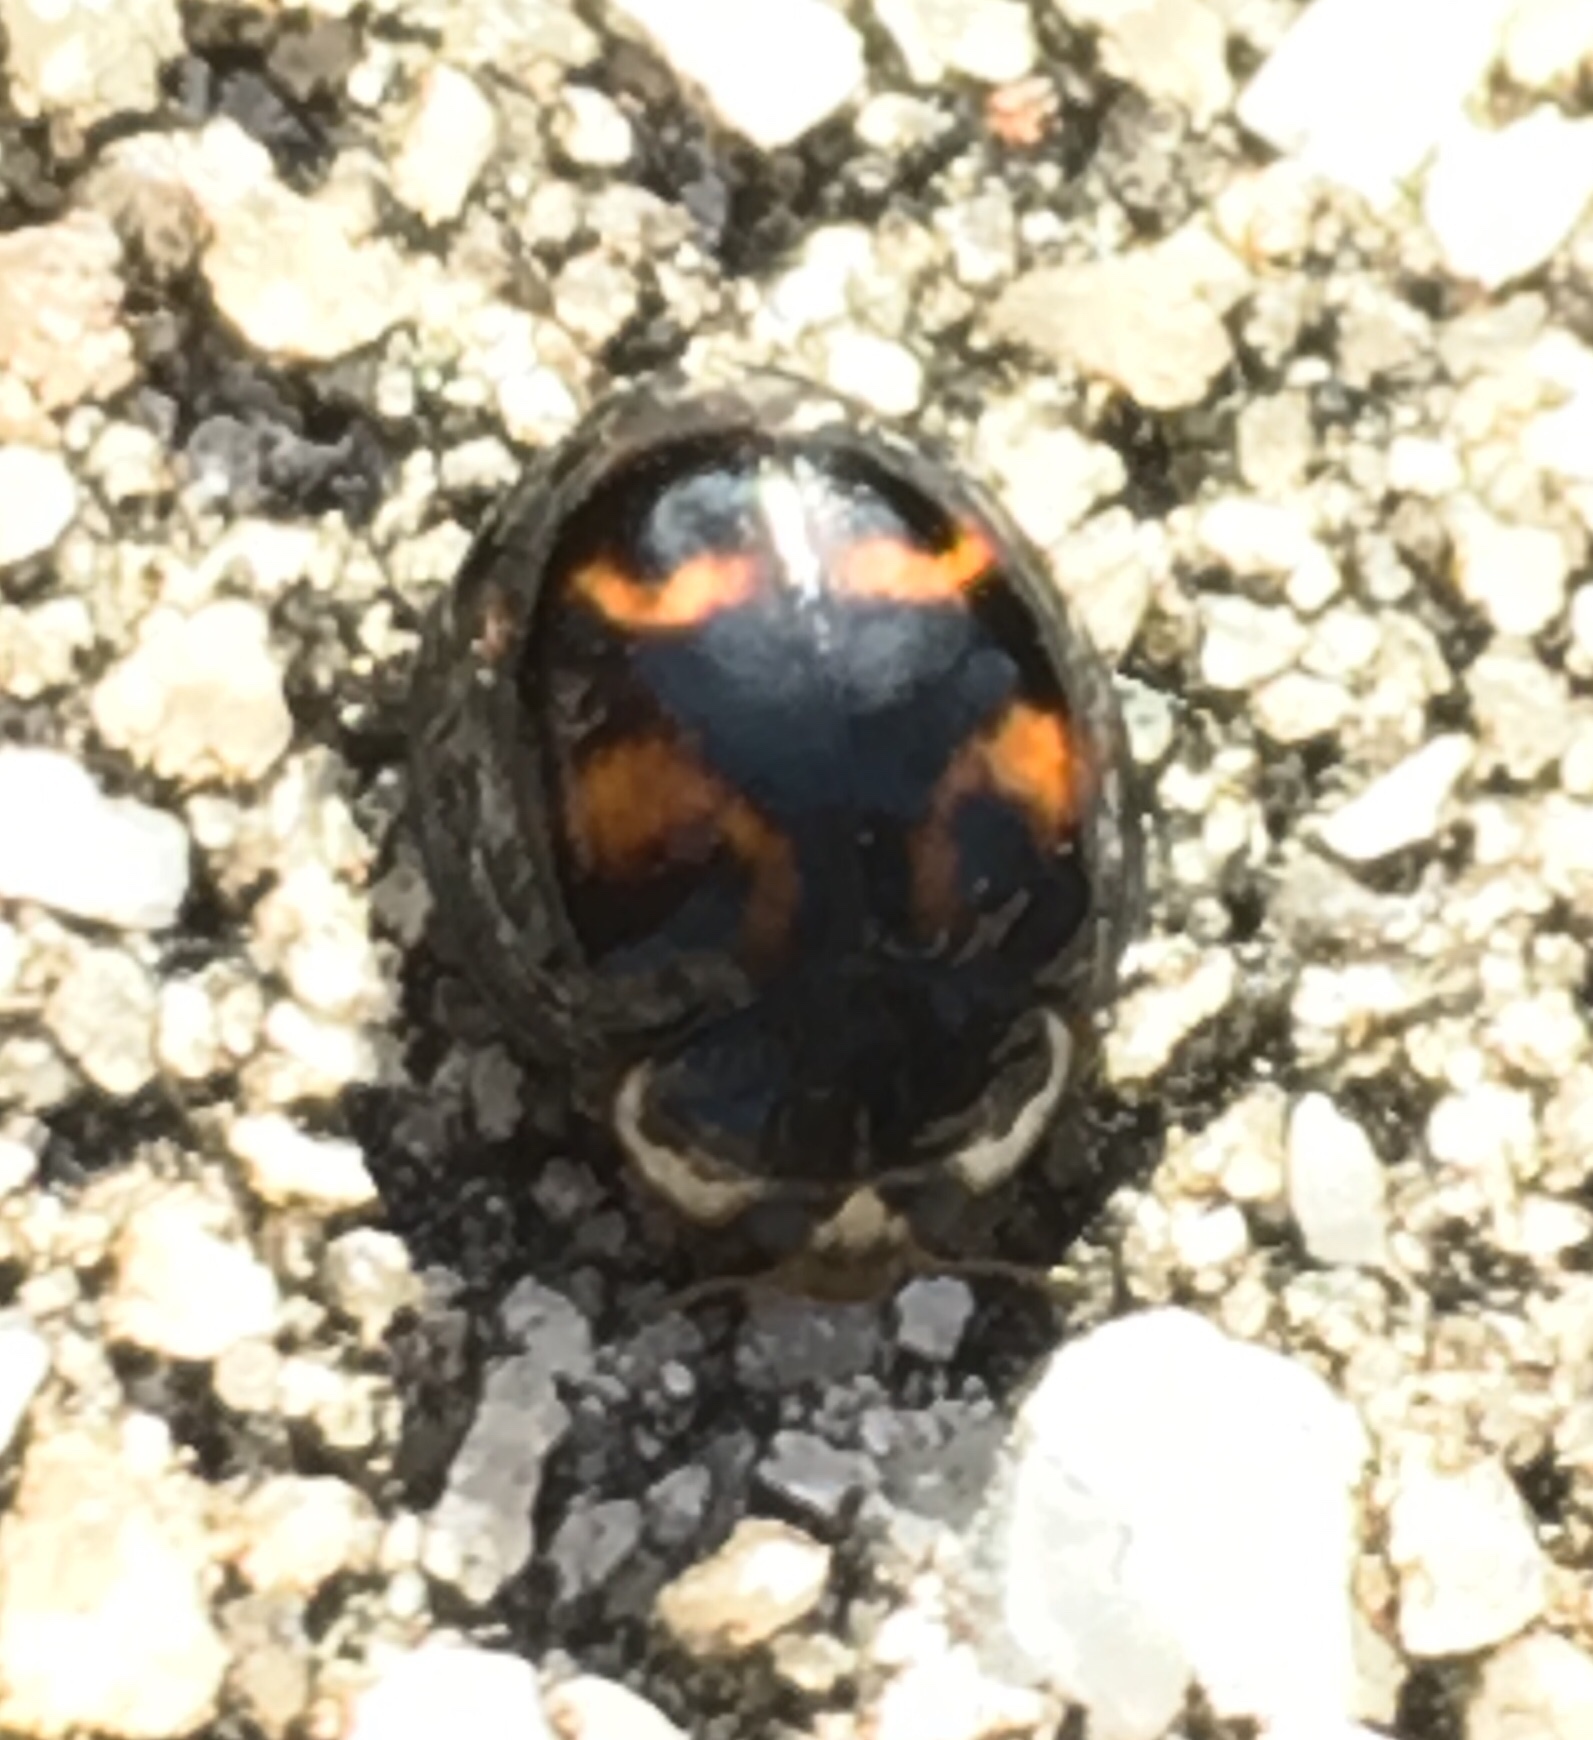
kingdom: Animalia
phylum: Arthropoda
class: Insecta
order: Coleoptera
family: Coccinellidae
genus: Harmonia
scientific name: Harmonia axyridis
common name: Harlequin ladybird
